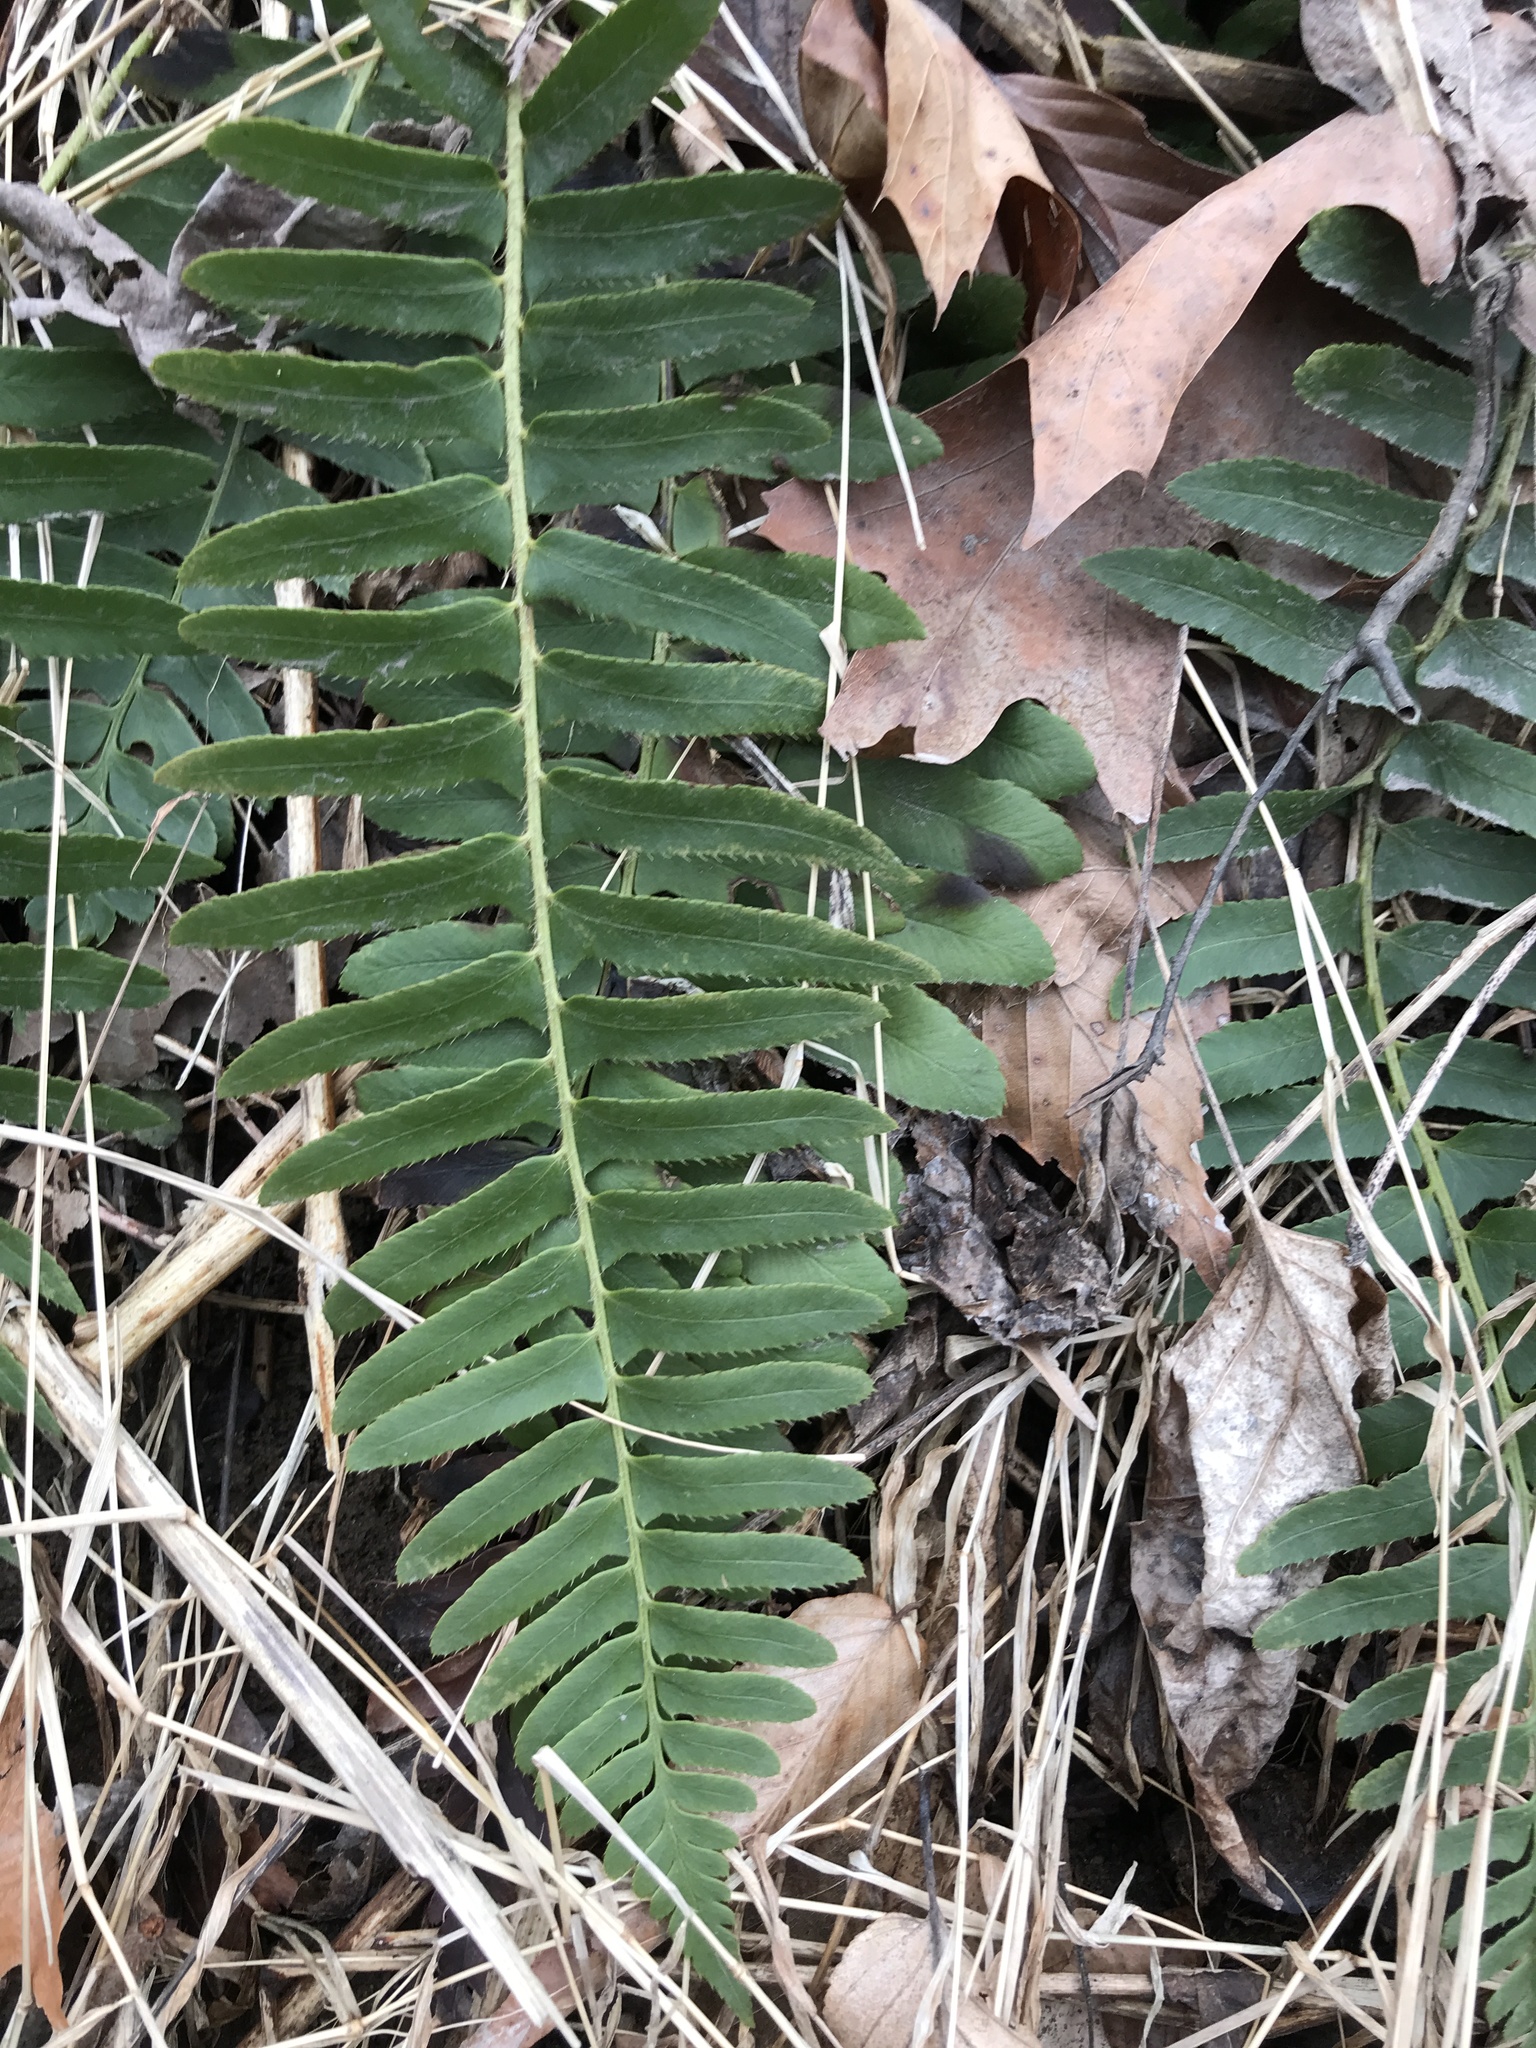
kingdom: Plantae
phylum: Tracheophyta
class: Polypodiopsida
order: Polypodiales
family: Dryopteridaceae
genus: Polystichum
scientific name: Polystichum acrostichoides
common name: Christmas fern
